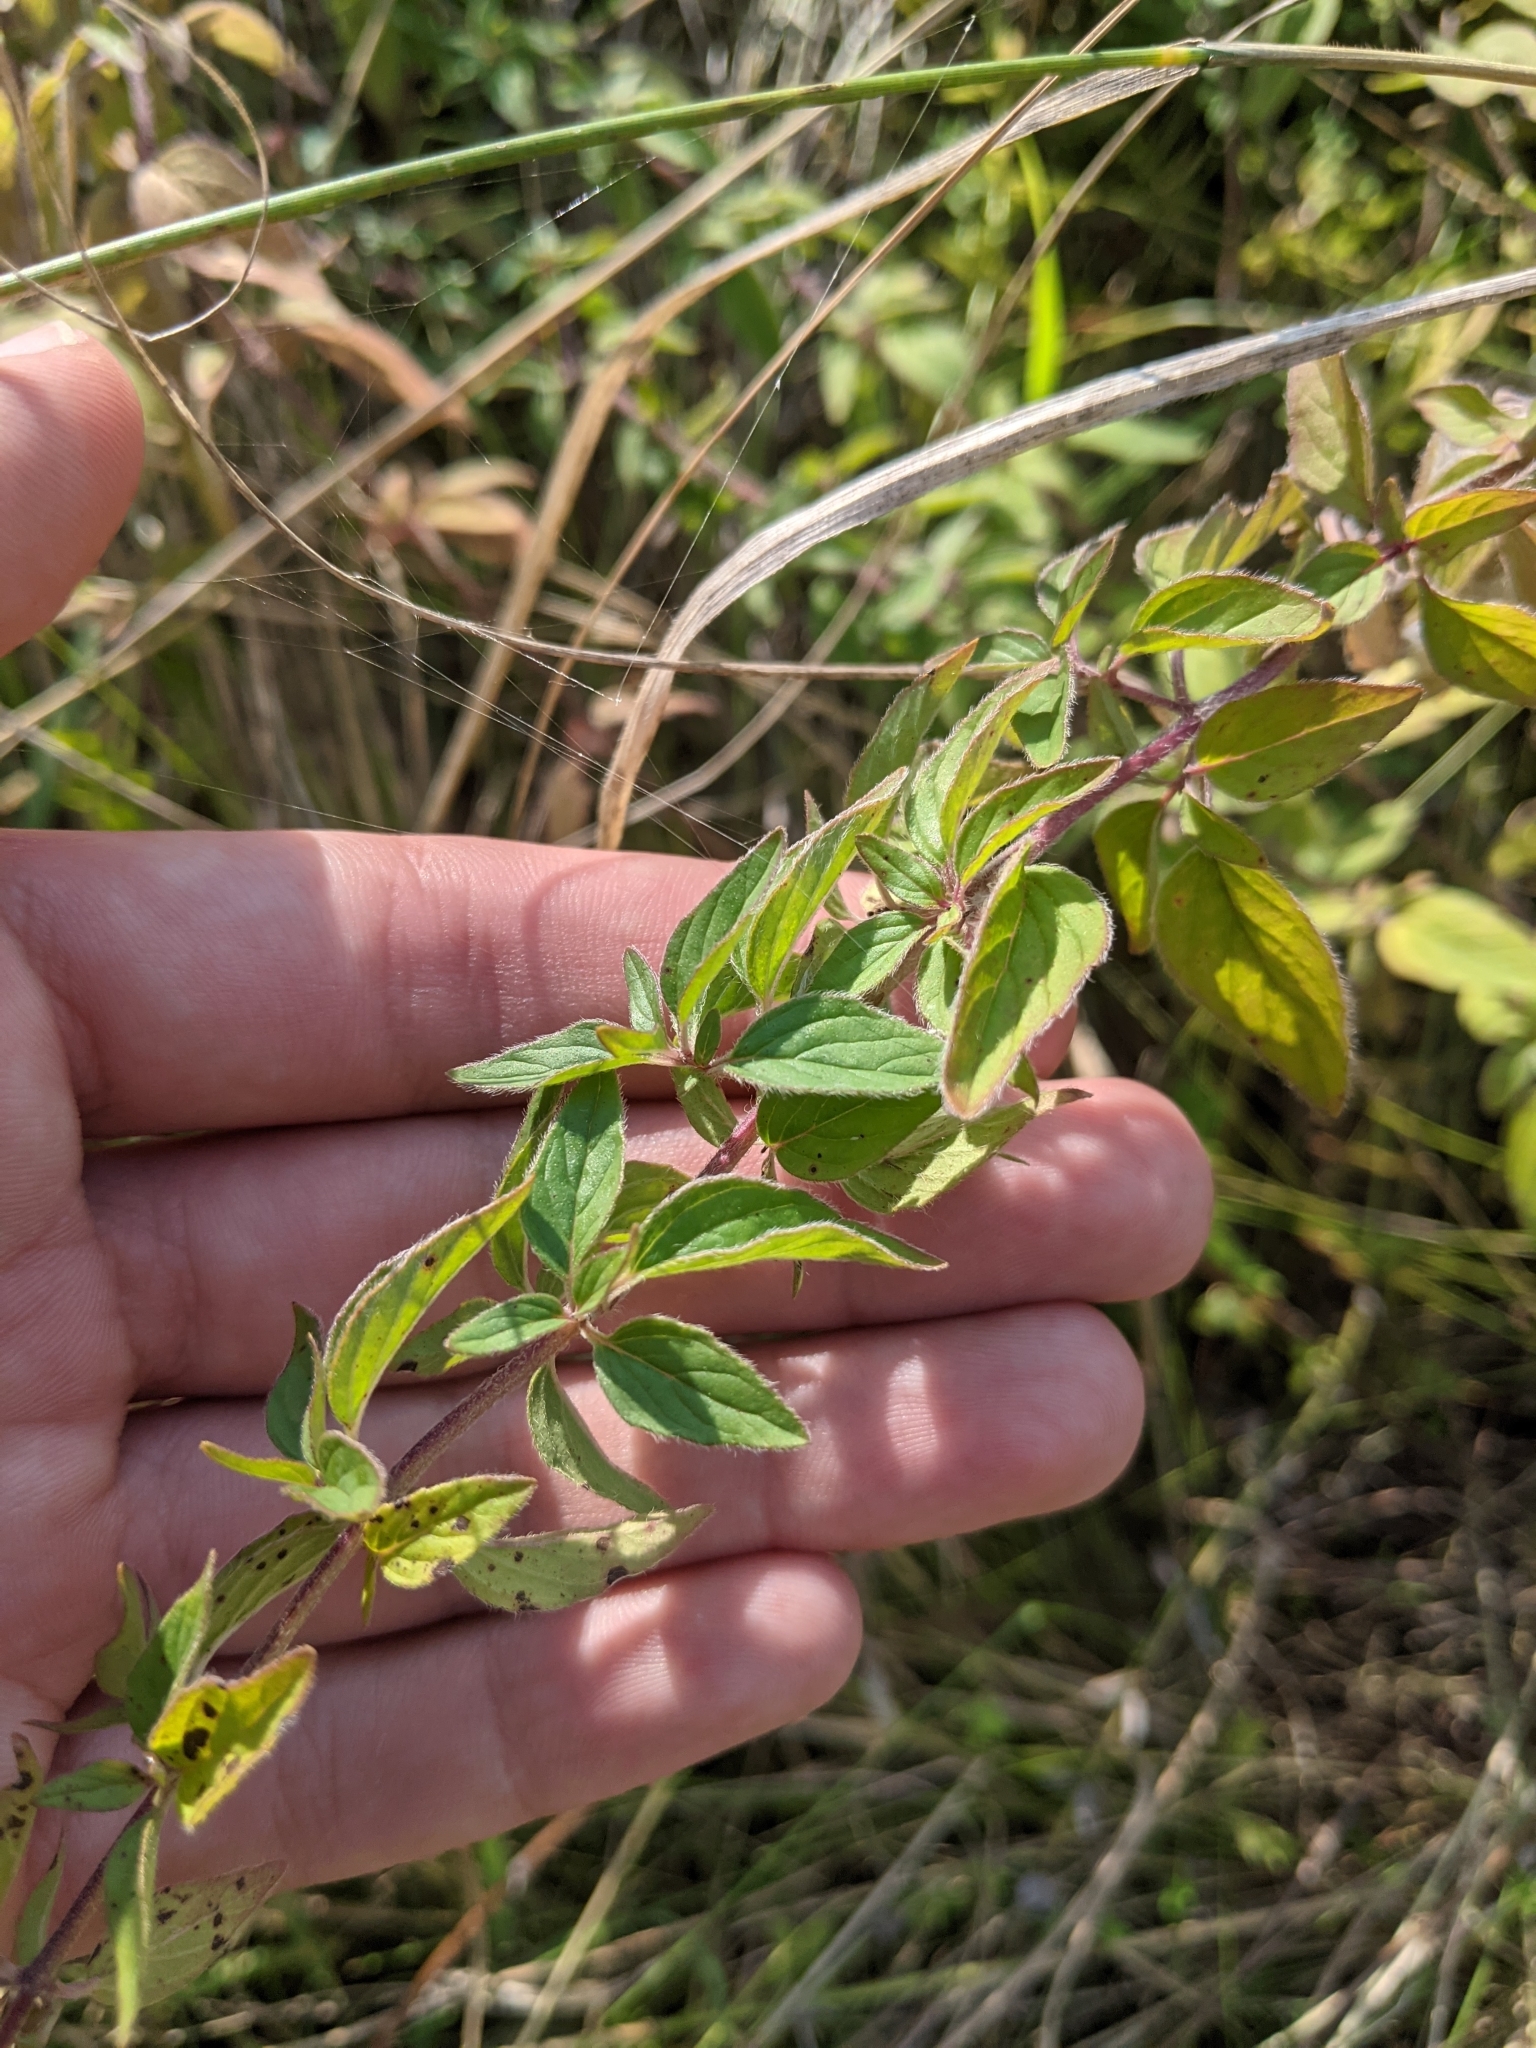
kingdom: Plantae
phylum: Tracheophyta
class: Magnoliopsida
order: Lamiales
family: Lamiaceae
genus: Origanum
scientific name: Origanum vulgare
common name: Wild marjoram
